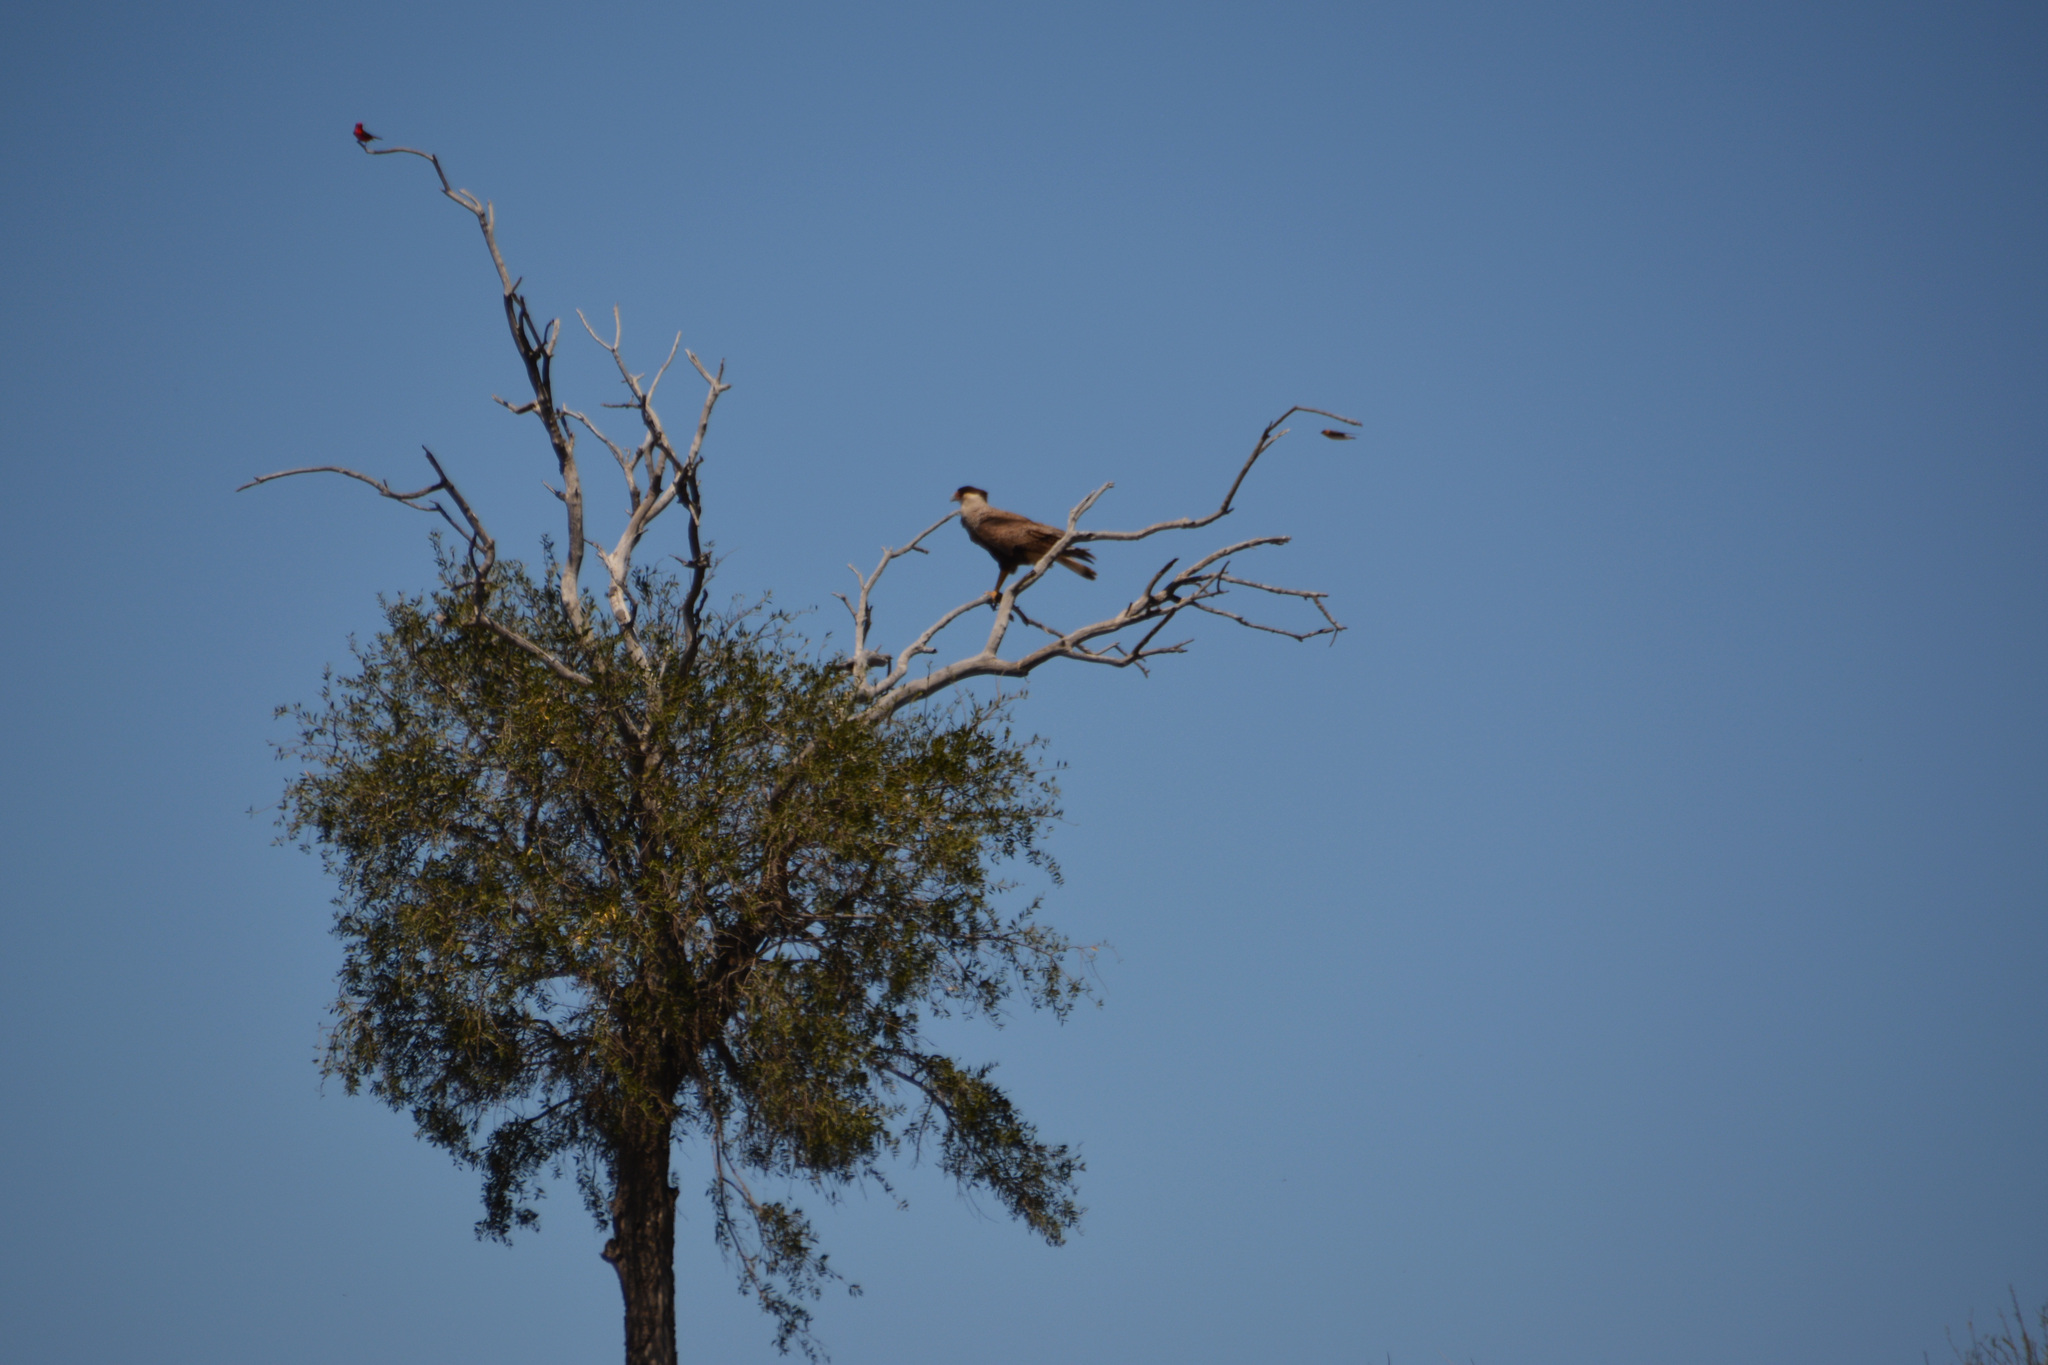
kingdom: Animalia
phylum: Chordata
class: Aves
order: Falconiformes
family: Falconidae
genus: Caracara
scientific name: Caracara plancus
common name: Southern caracara
